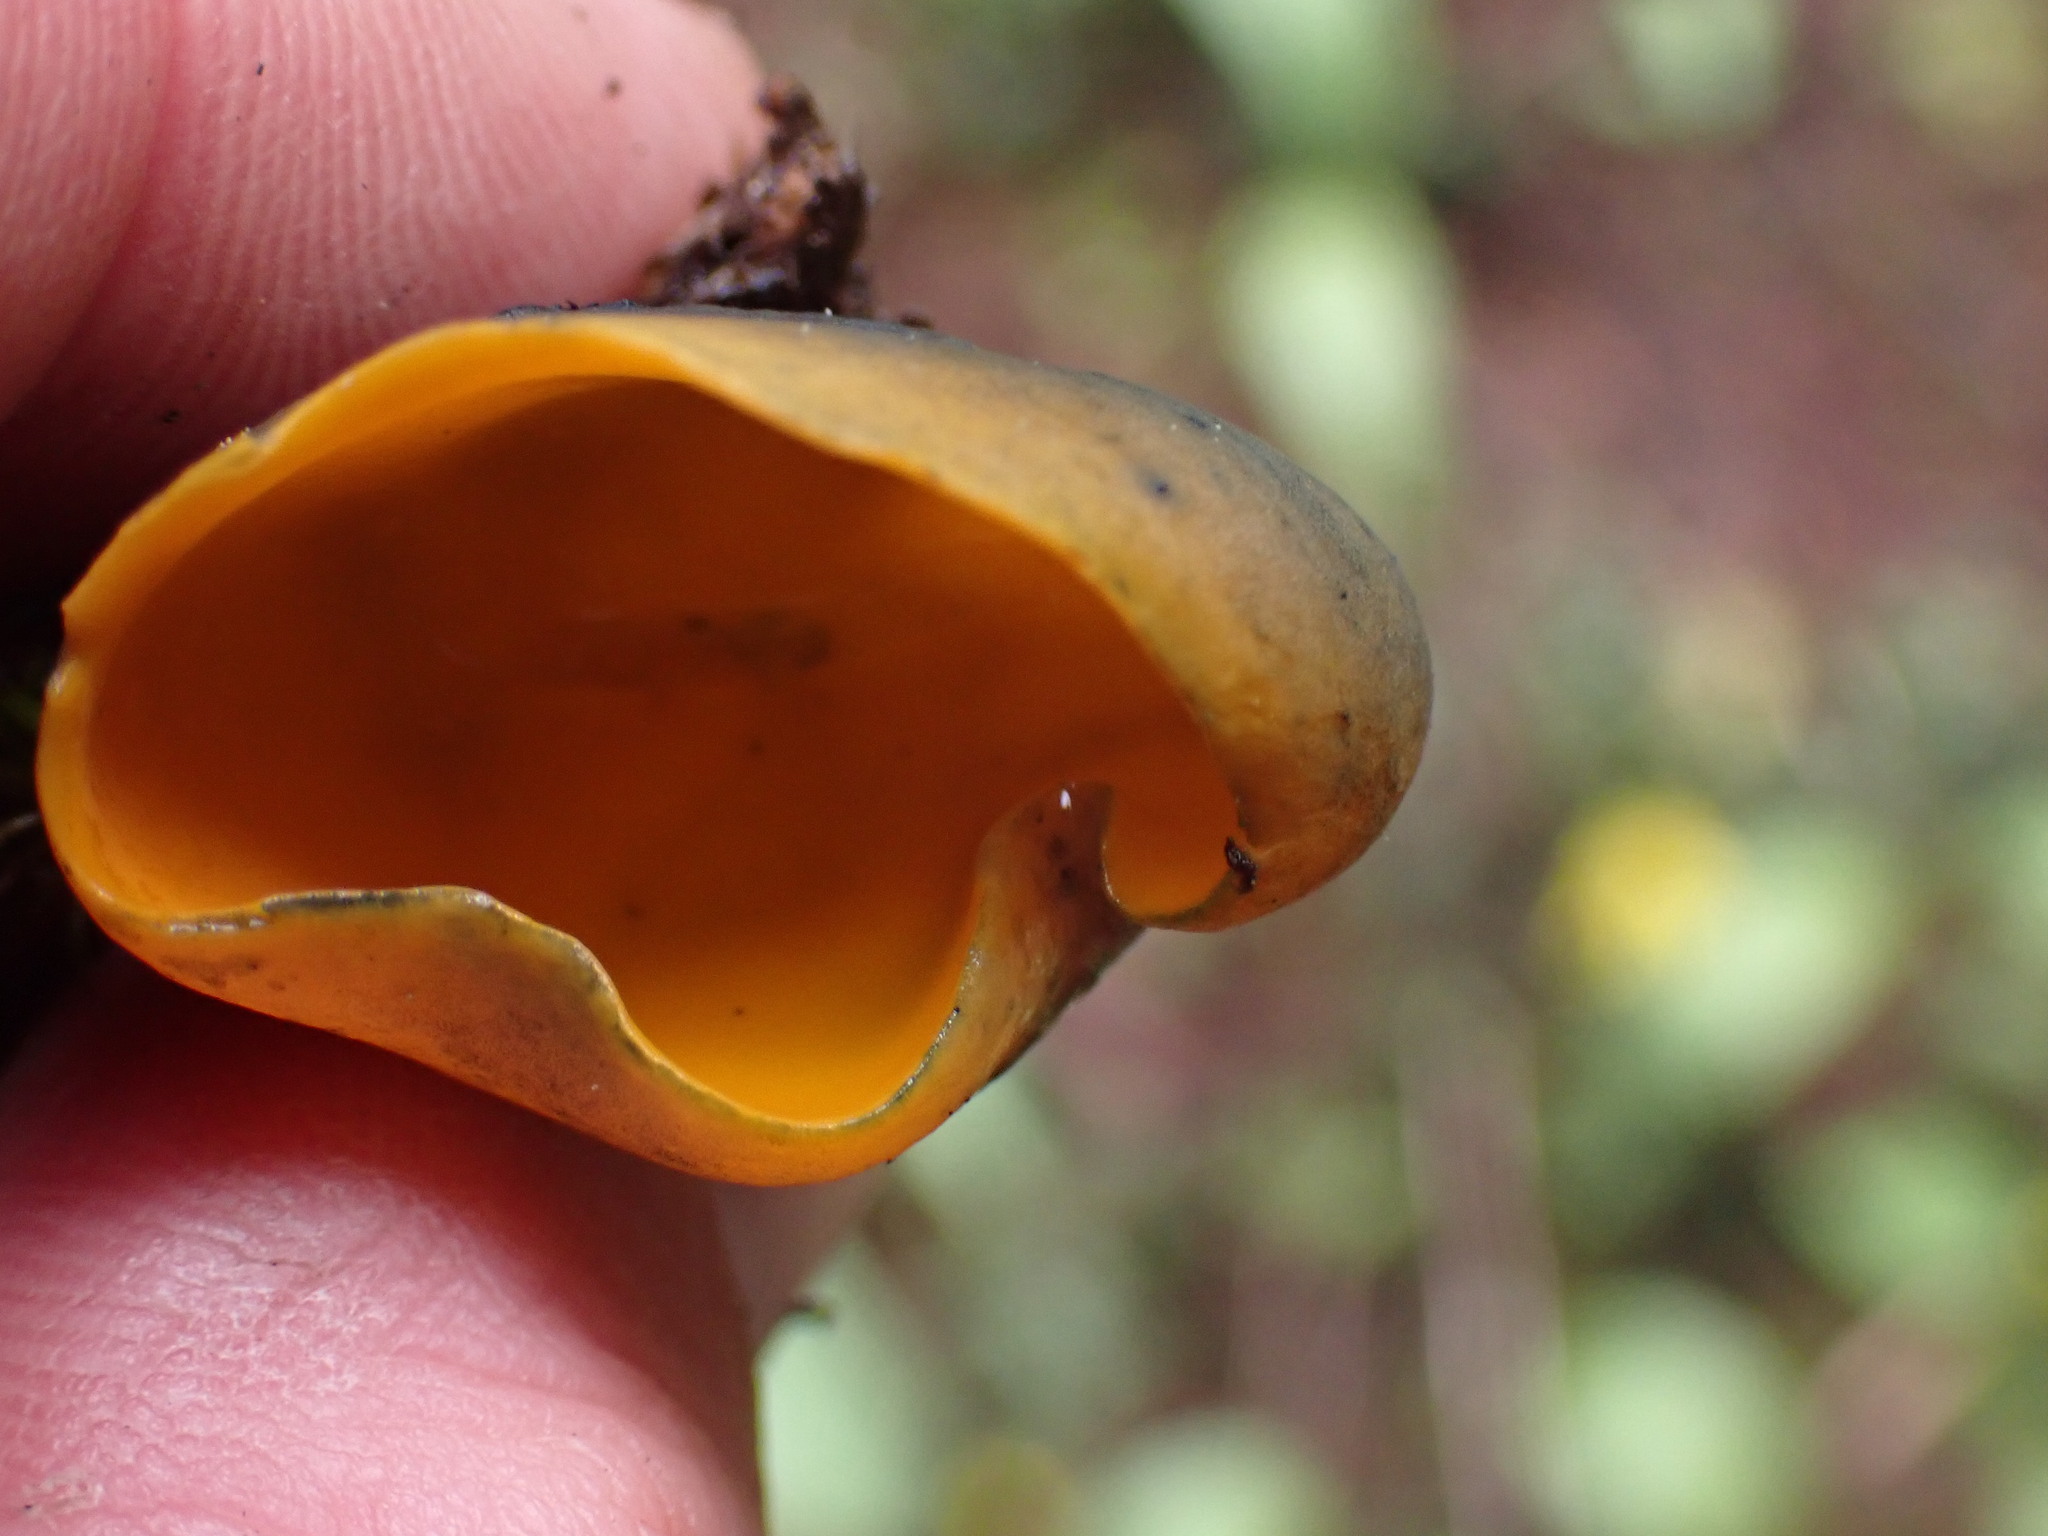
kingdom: Fungi
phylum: Ascomycota
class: Pezizomycetes
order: Pezizales
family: Caloscyphaceae
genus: Caloscypha
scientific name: Caloscypha fulgens
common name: Golden cup
